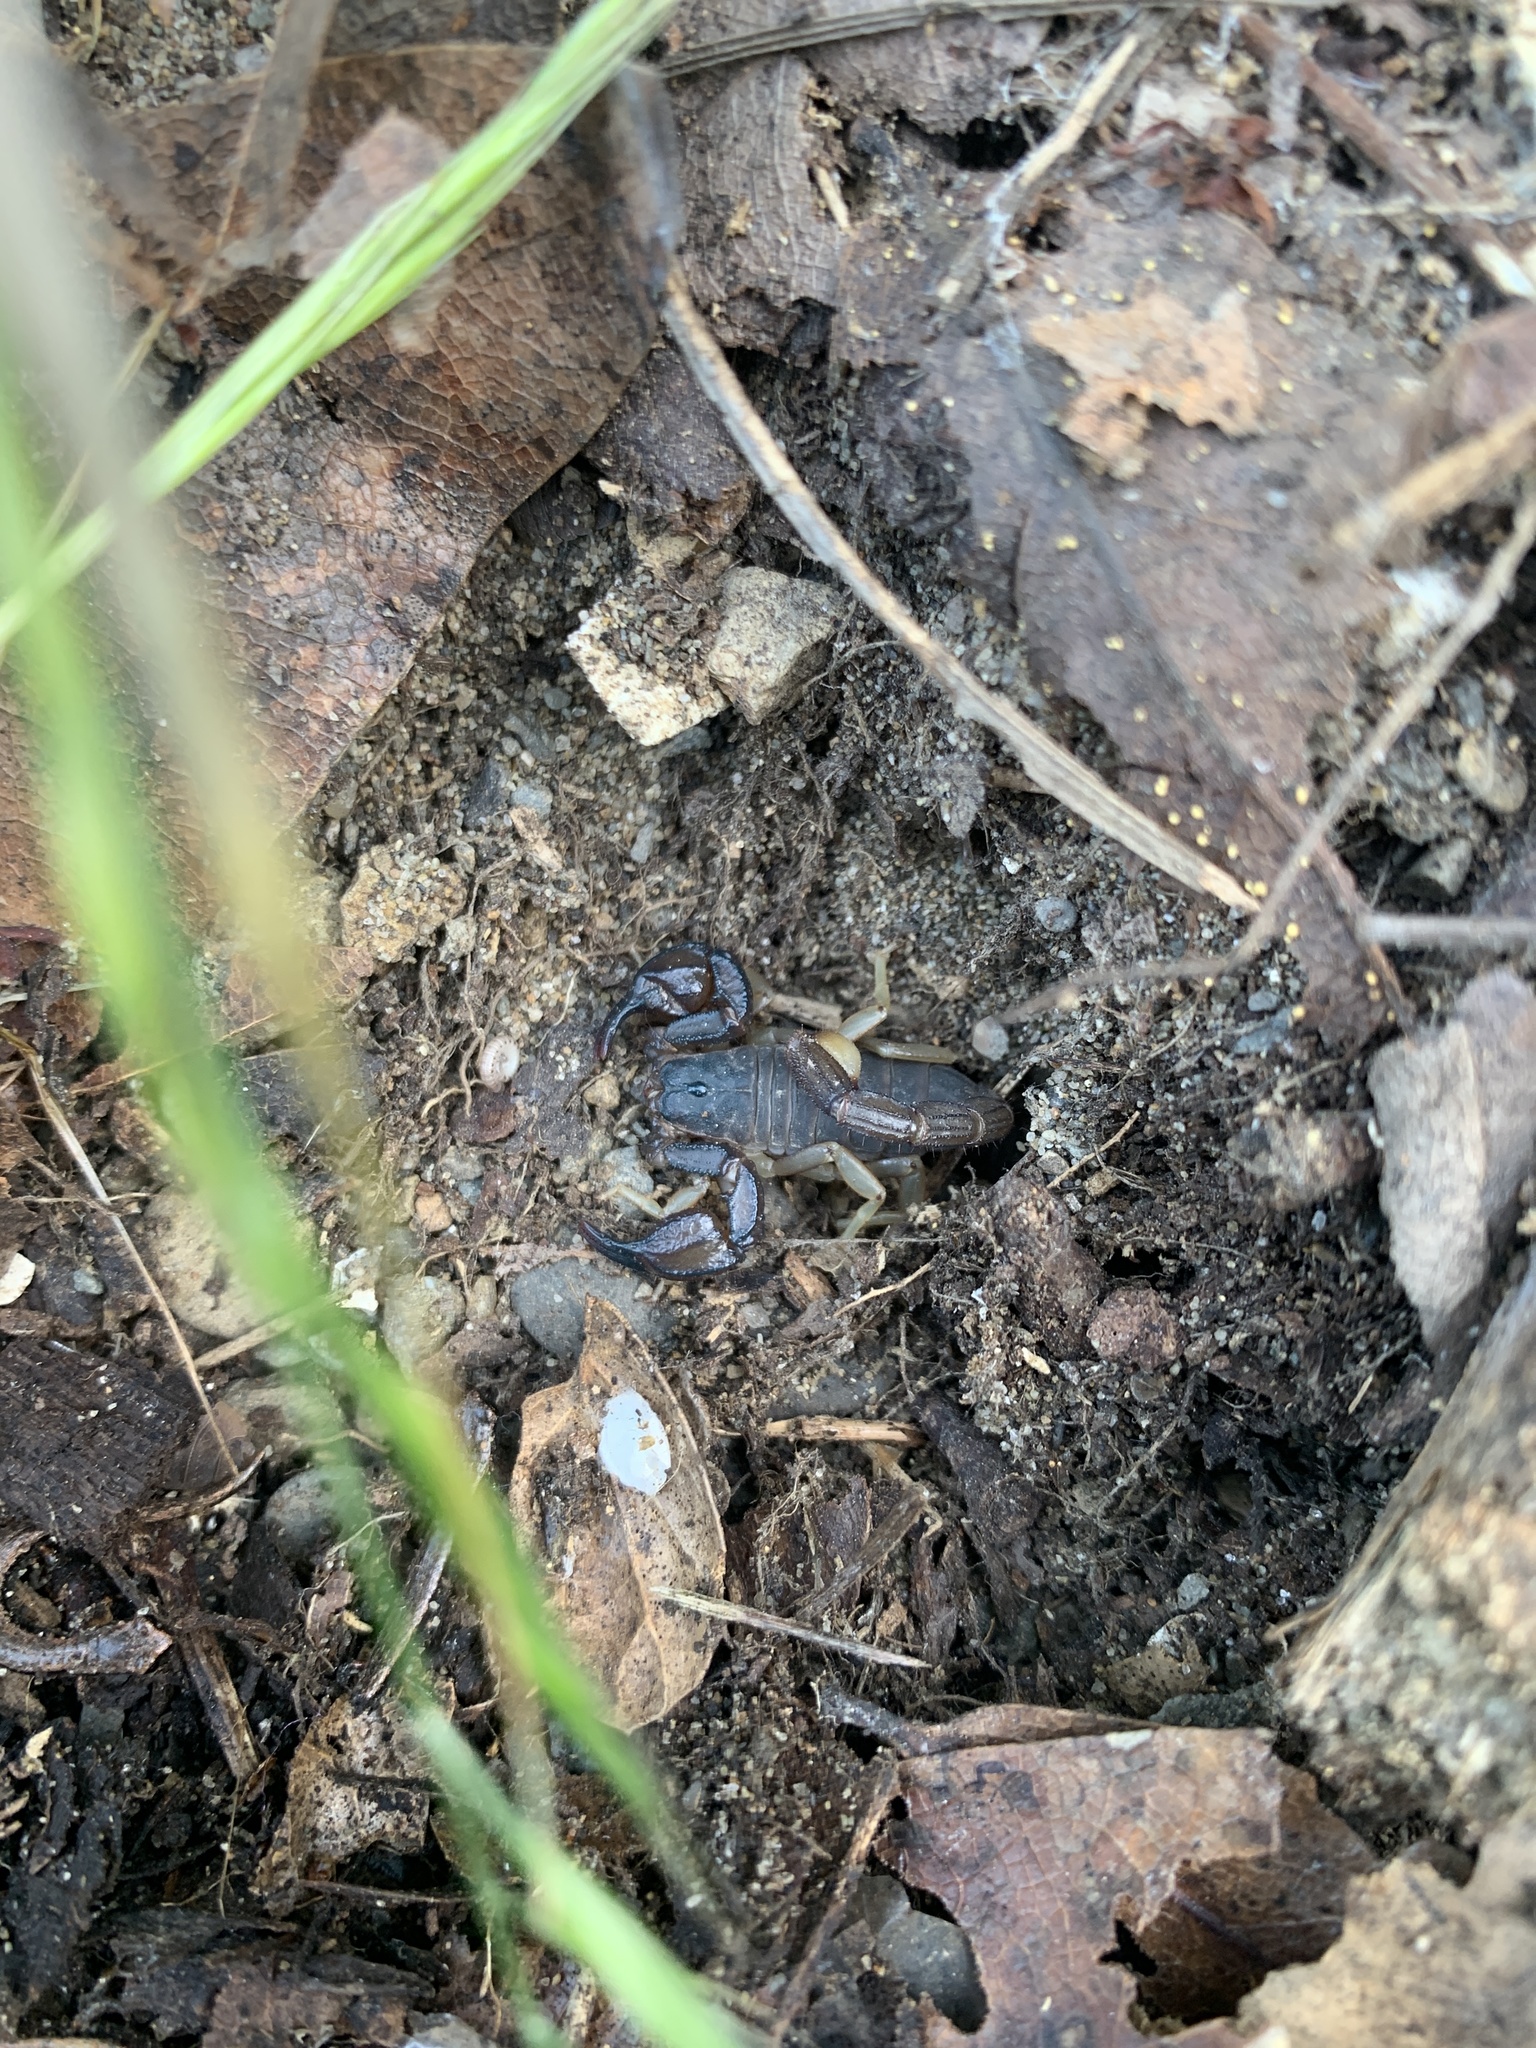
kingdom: Animalia
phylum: Arthropoda
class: Arachnida
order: Scorpiones
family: Chactidae
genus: Uroctonus
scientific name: Uroctonus mordax
